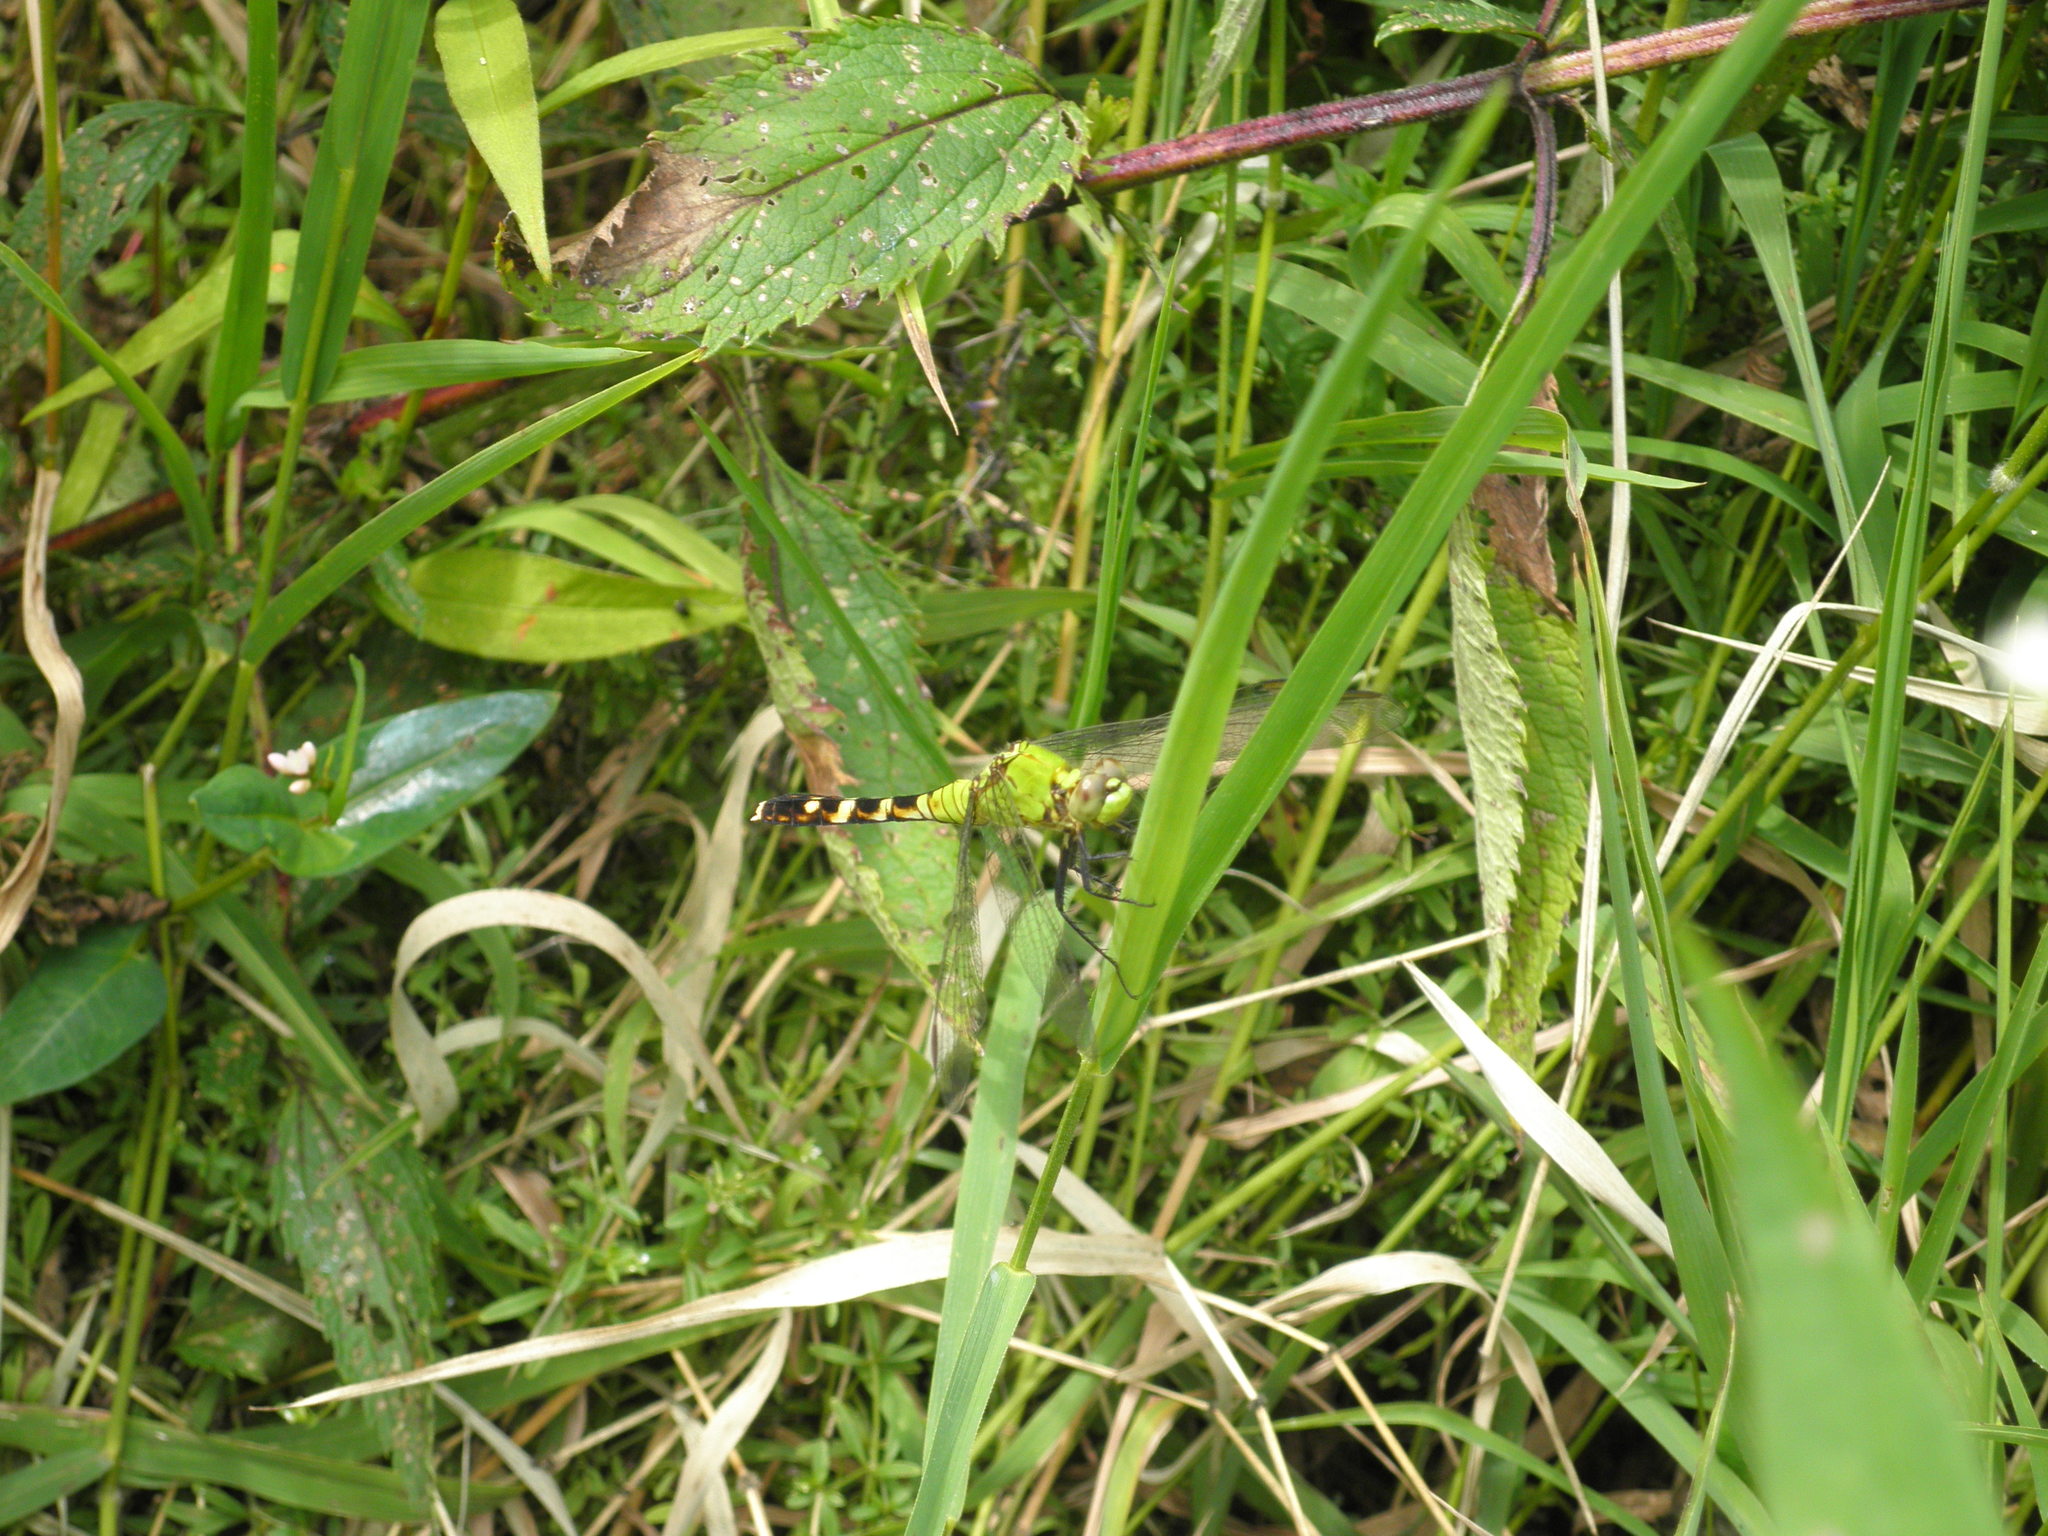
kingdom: Animalia
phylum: Arthropoda
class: Insecta
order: Odonata
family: Libellulidae
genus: Erythemis
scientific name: Erythemis simplicicollis
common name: Eastern pondhawk
